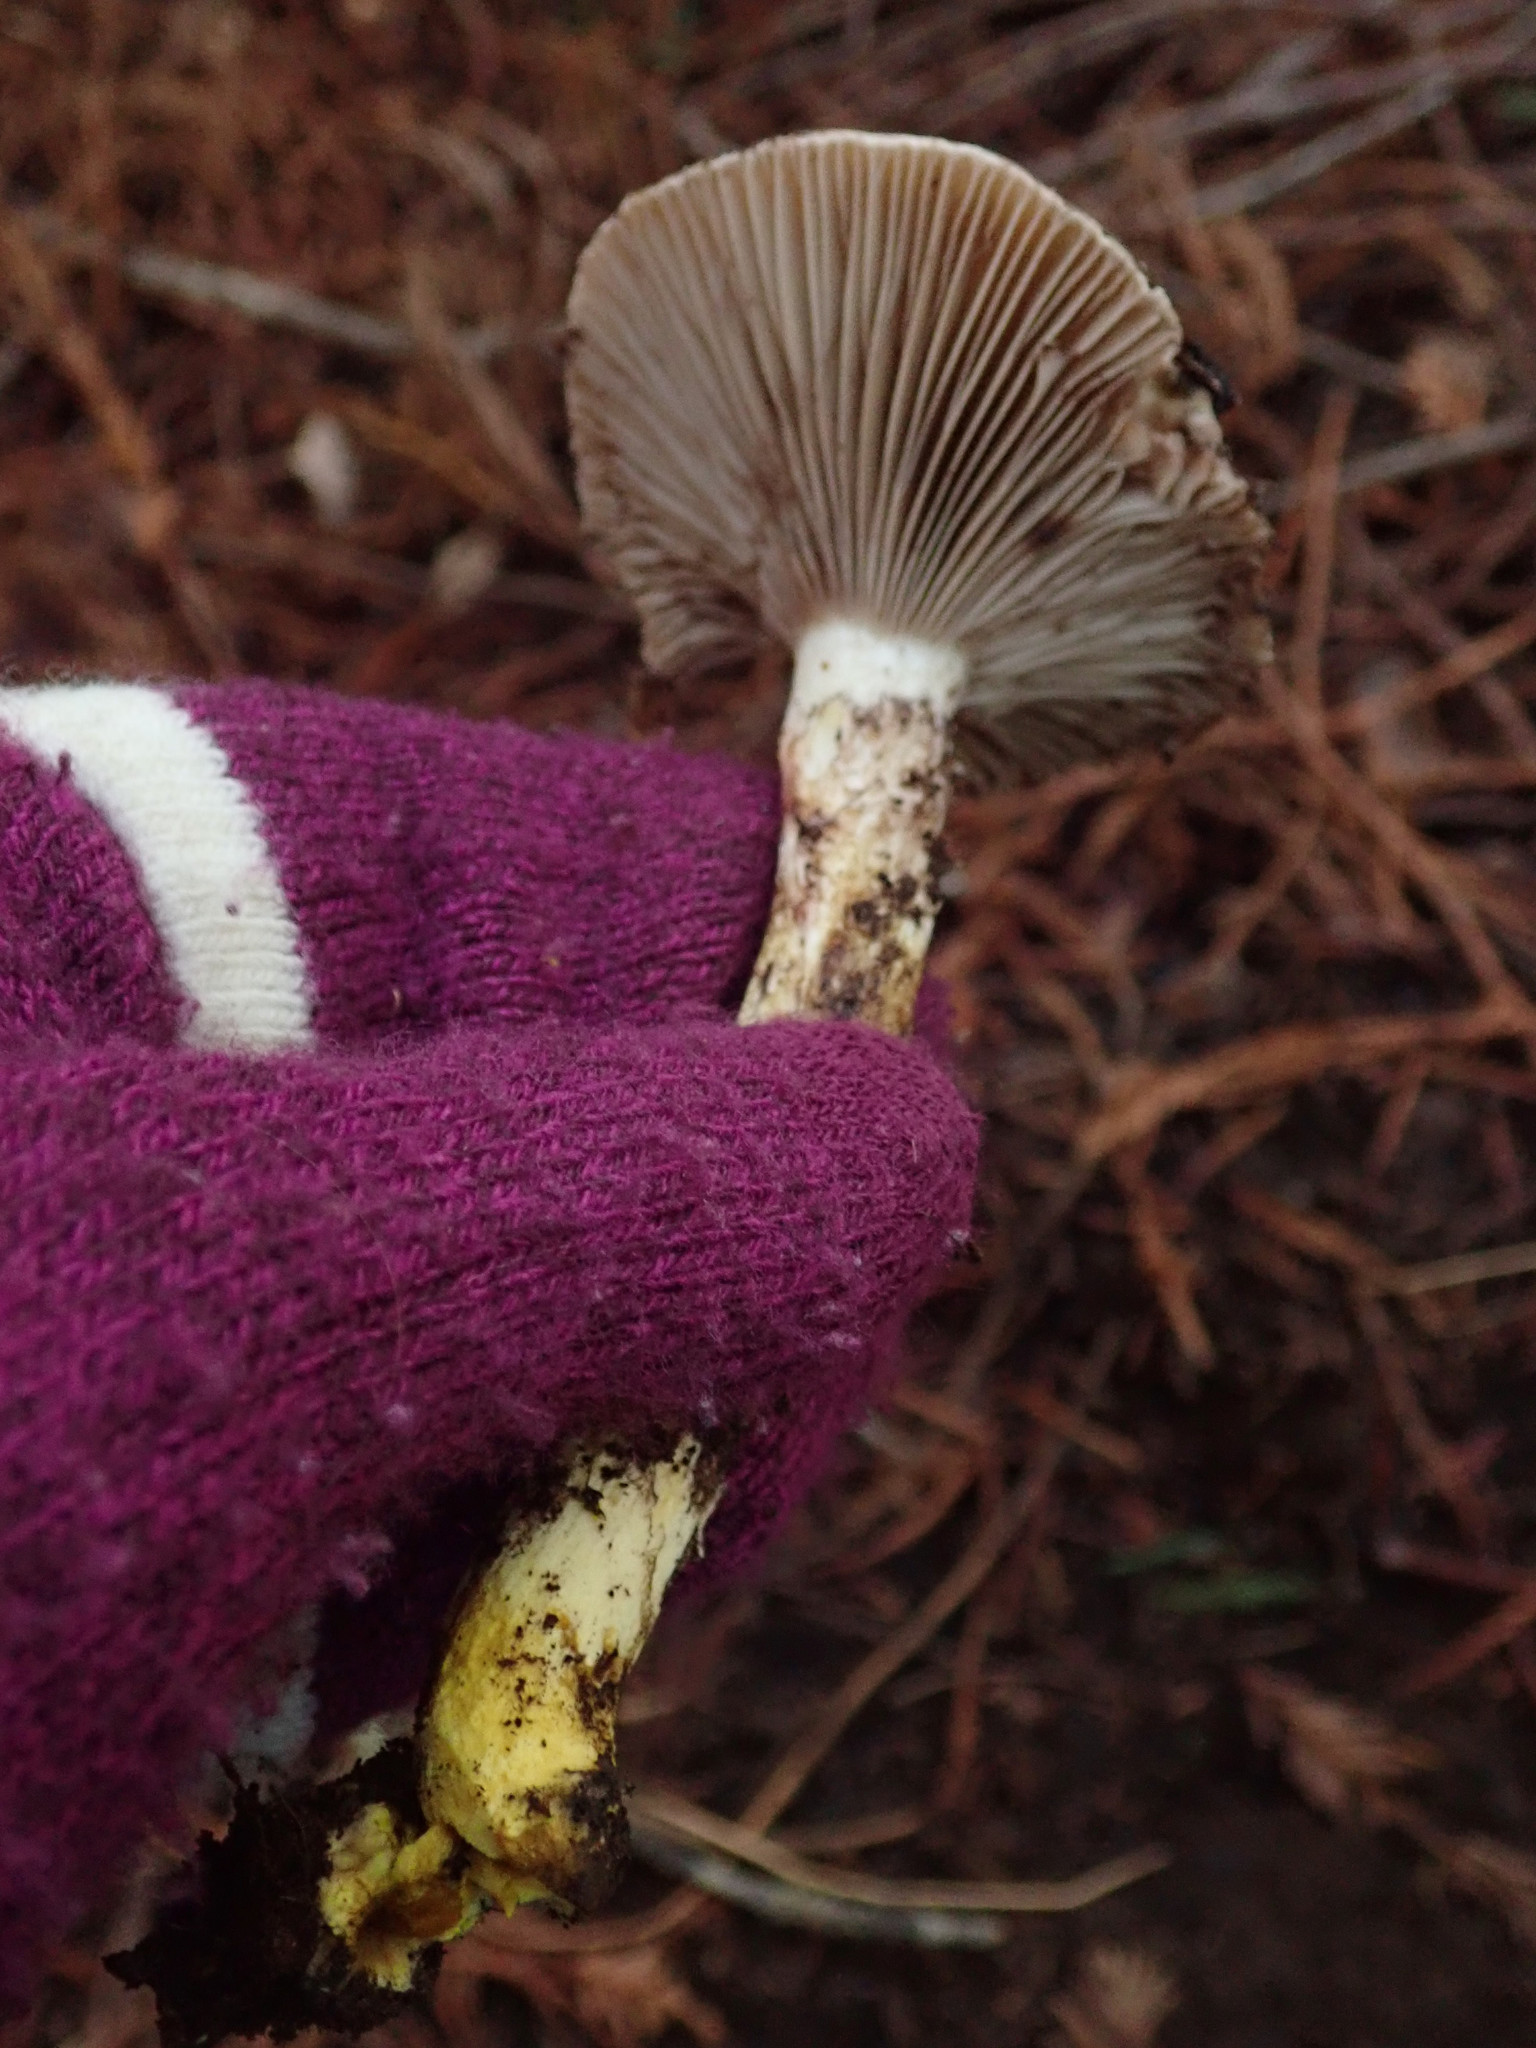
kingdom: Fungi
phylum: Basidiomycota
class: Agaricomycetes
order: Boletales
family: Gomphidiaceae
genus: Gomphidius
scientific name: Gomphidius oregonensis
